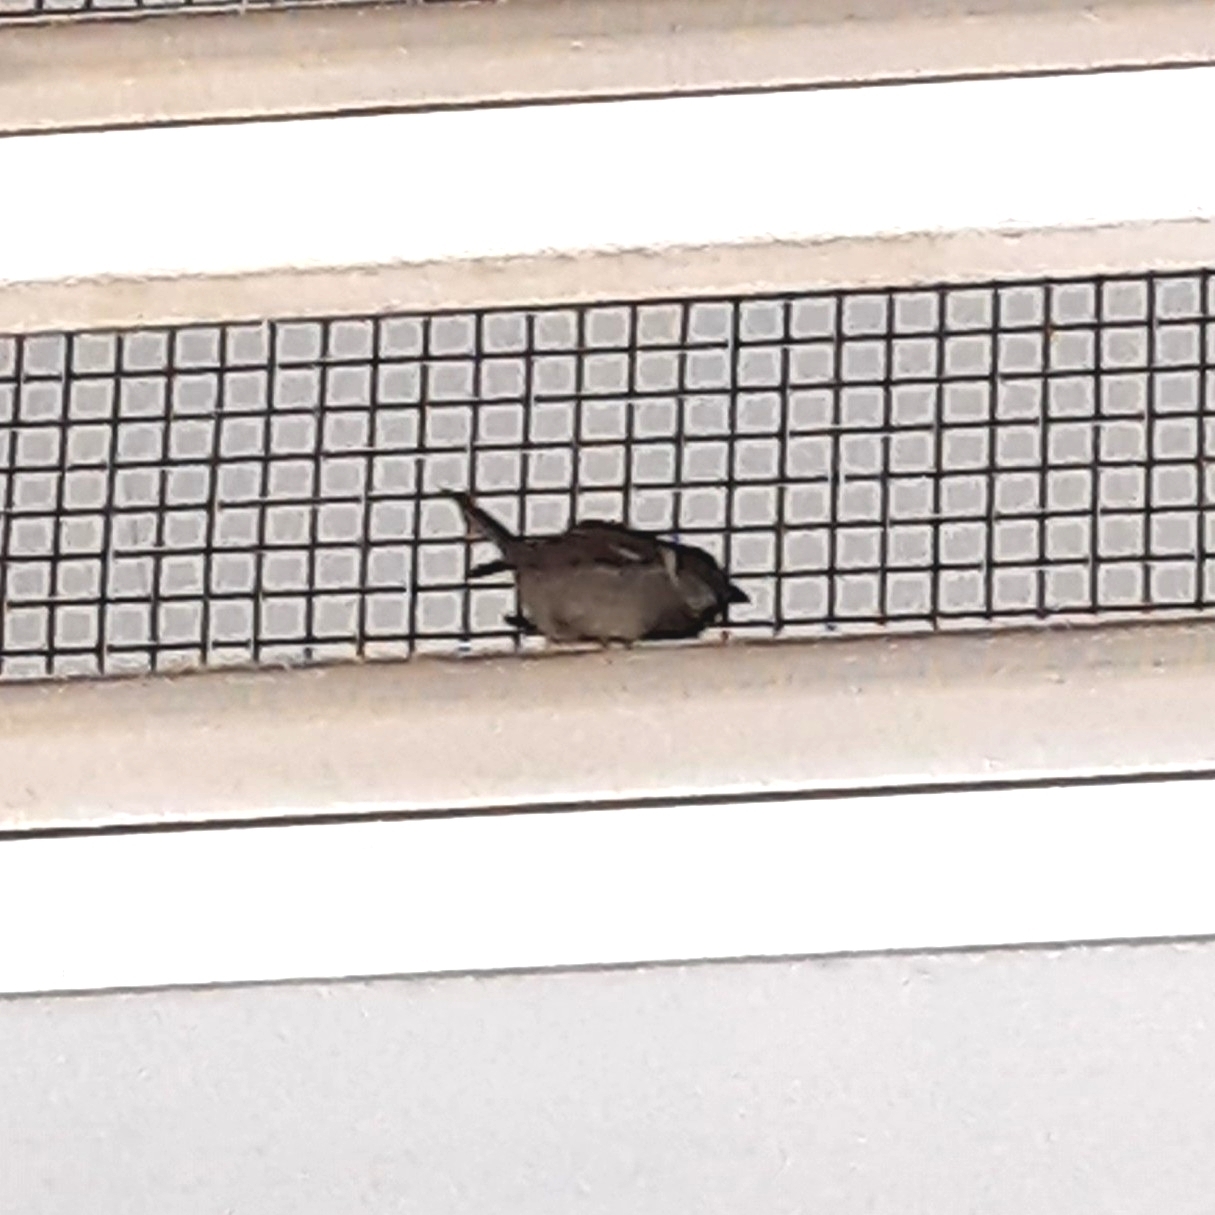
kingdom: Animalia
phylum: Chordata
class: Aves
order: Passeriformes
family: Passeridae
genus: Passer
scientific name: Passer domesticus
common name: House sparrow
